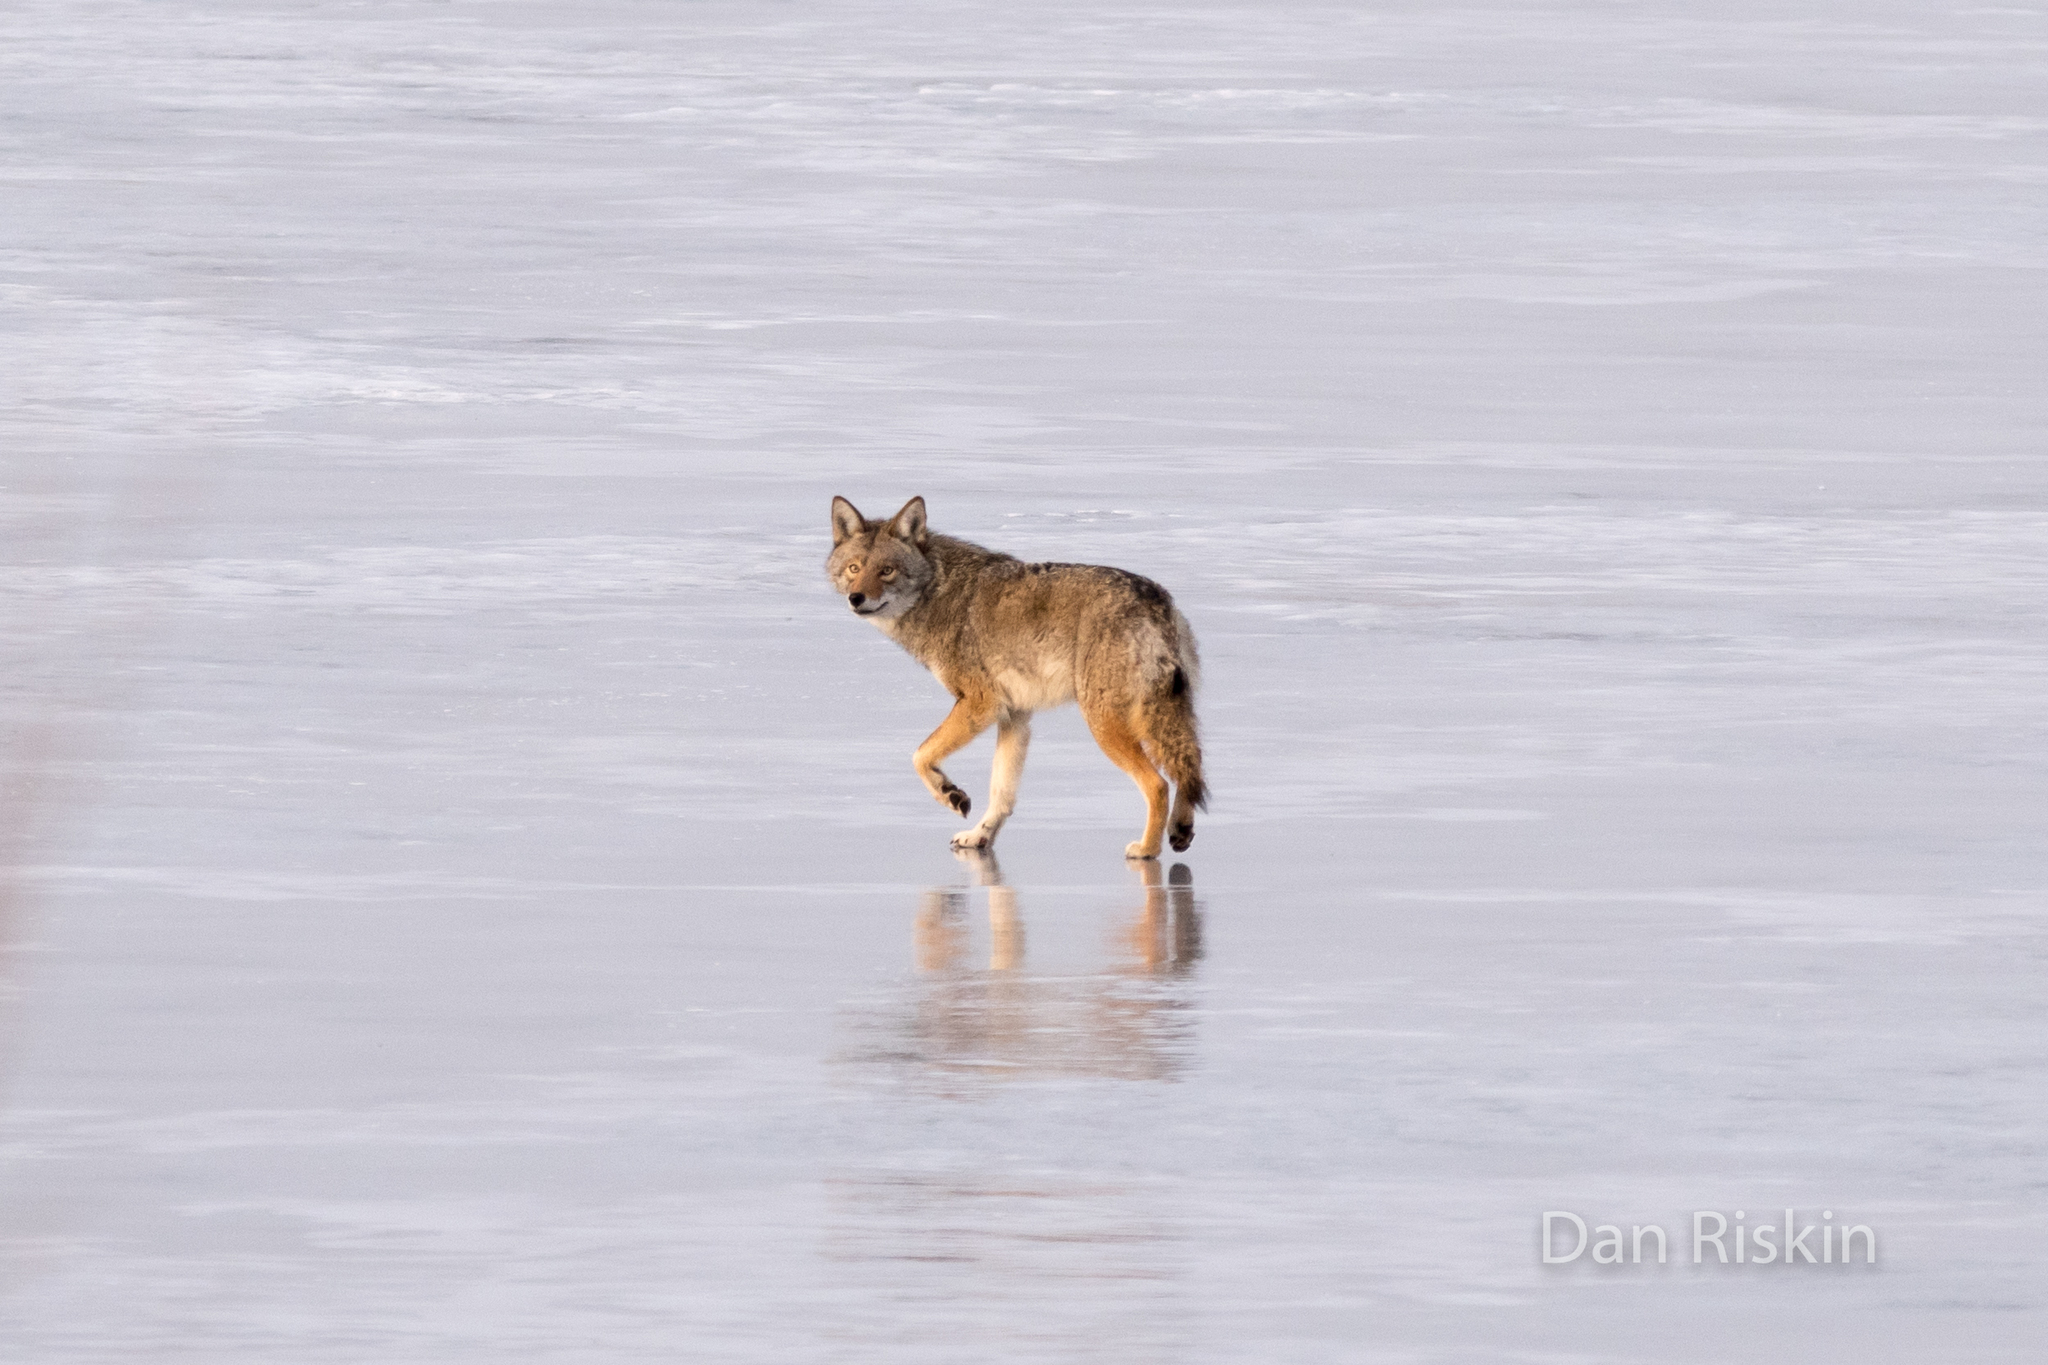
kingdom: Animalia
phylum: Chordata
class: Mammalia
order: Carnivora
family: Canidae
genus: Canis
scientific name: Canis latrans
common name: Coyote
